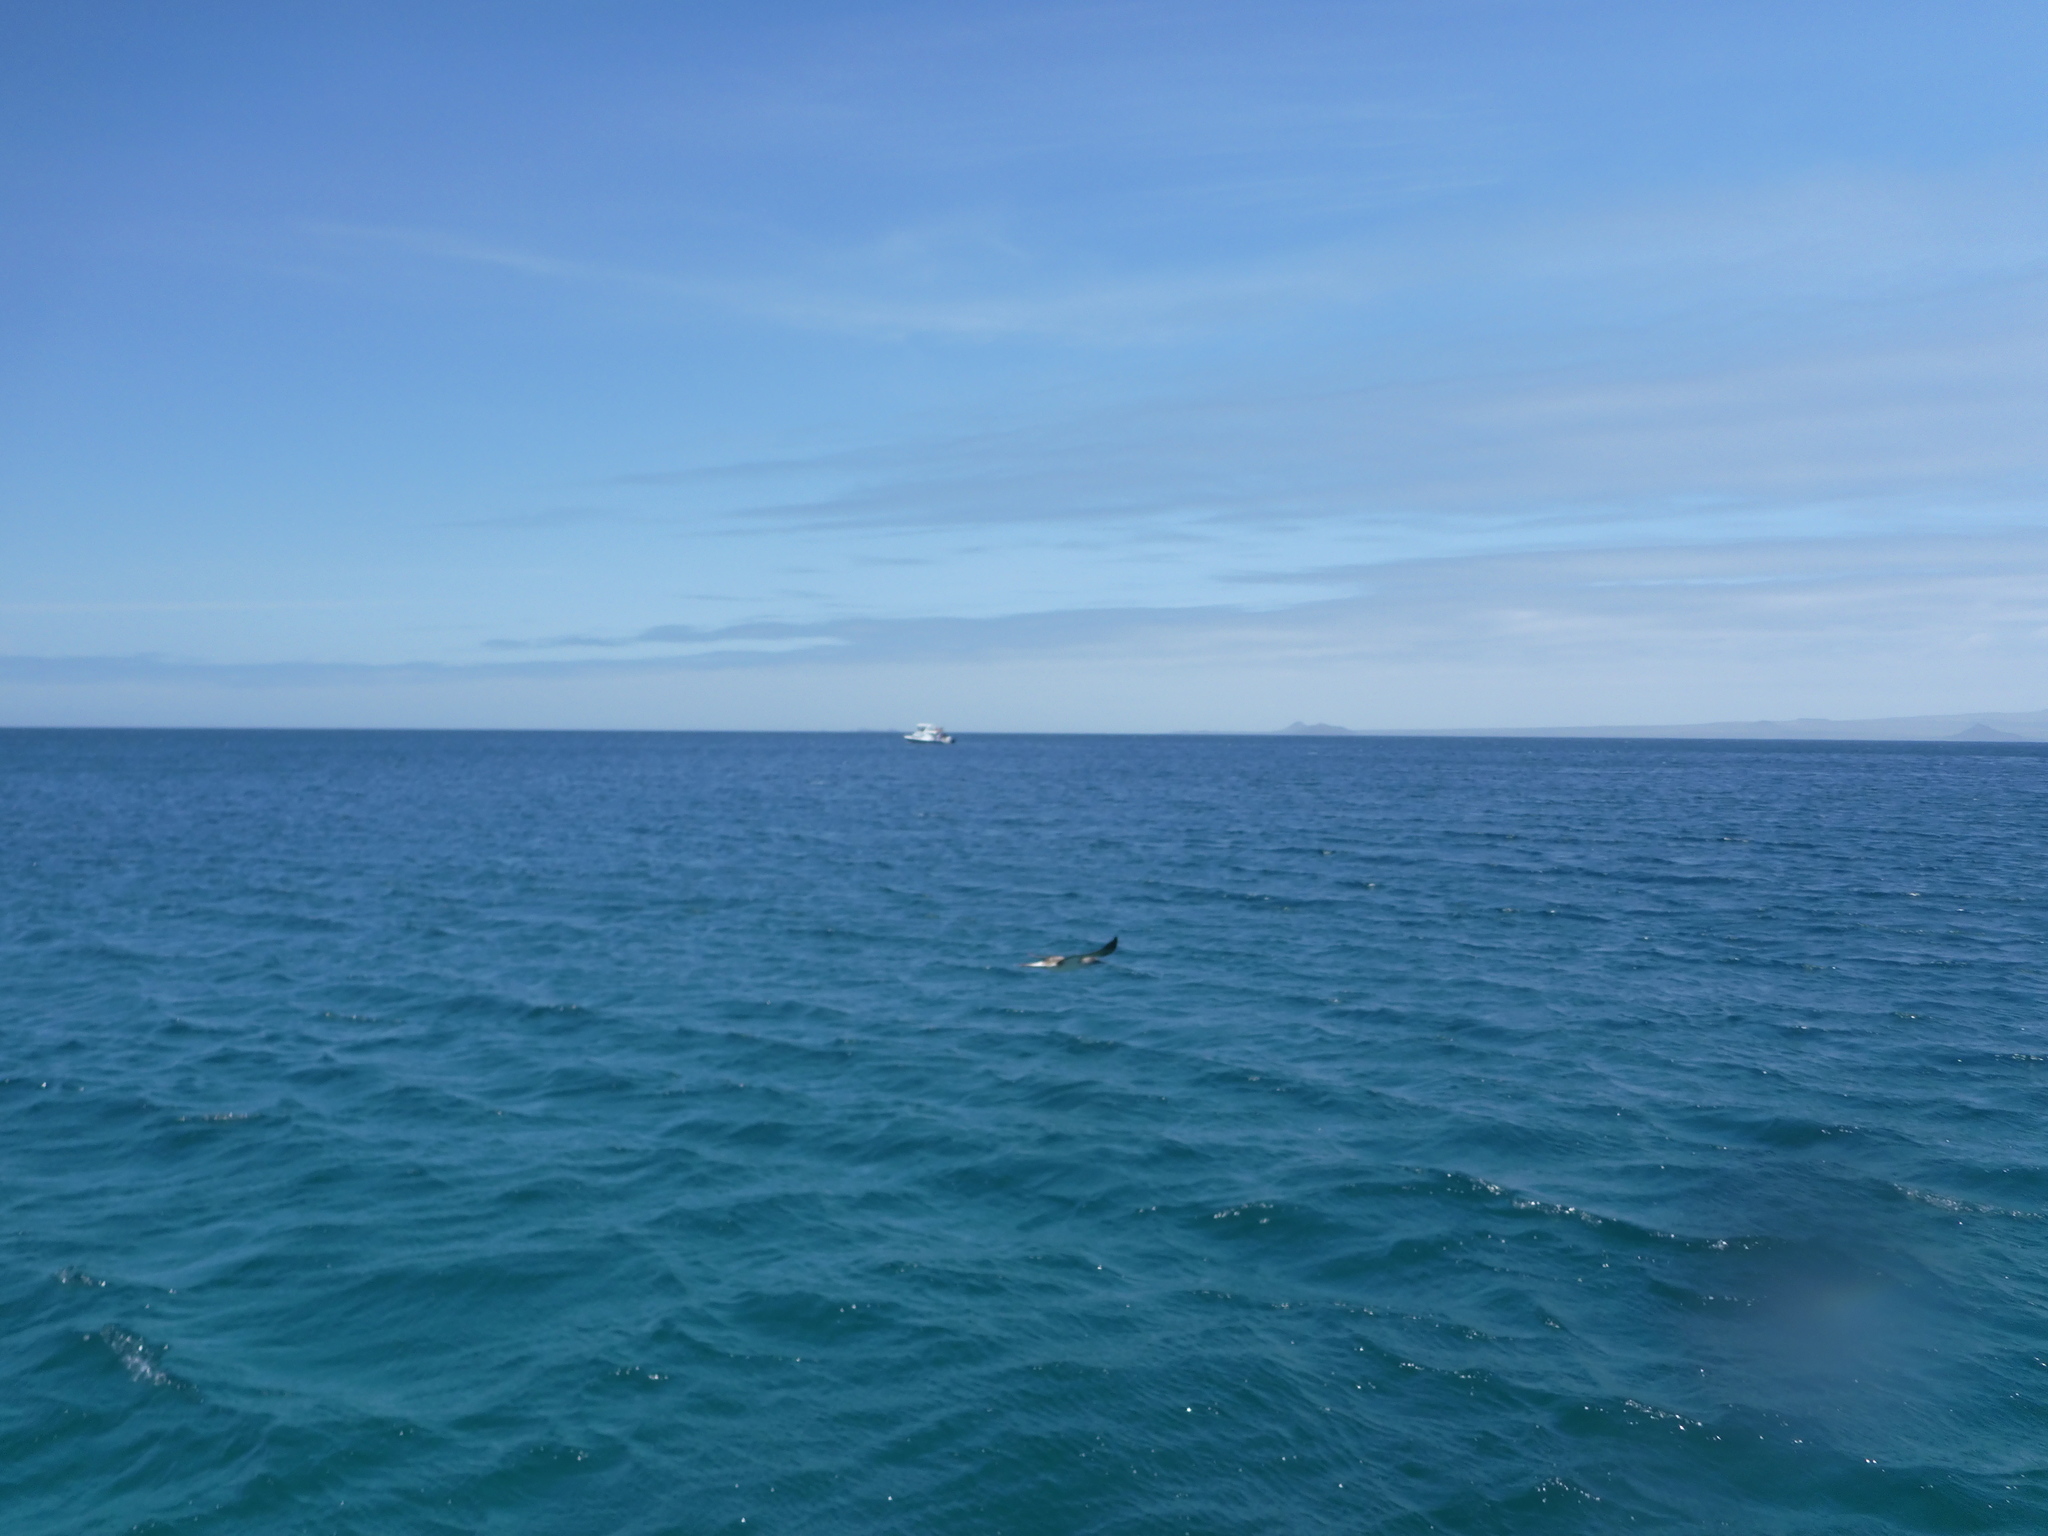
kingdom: Animalia
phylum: Chordata
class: Aves
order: Suliformes
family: Sulidae
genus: Sula
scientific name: Sula nebouxii
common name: Blue-footed booby
